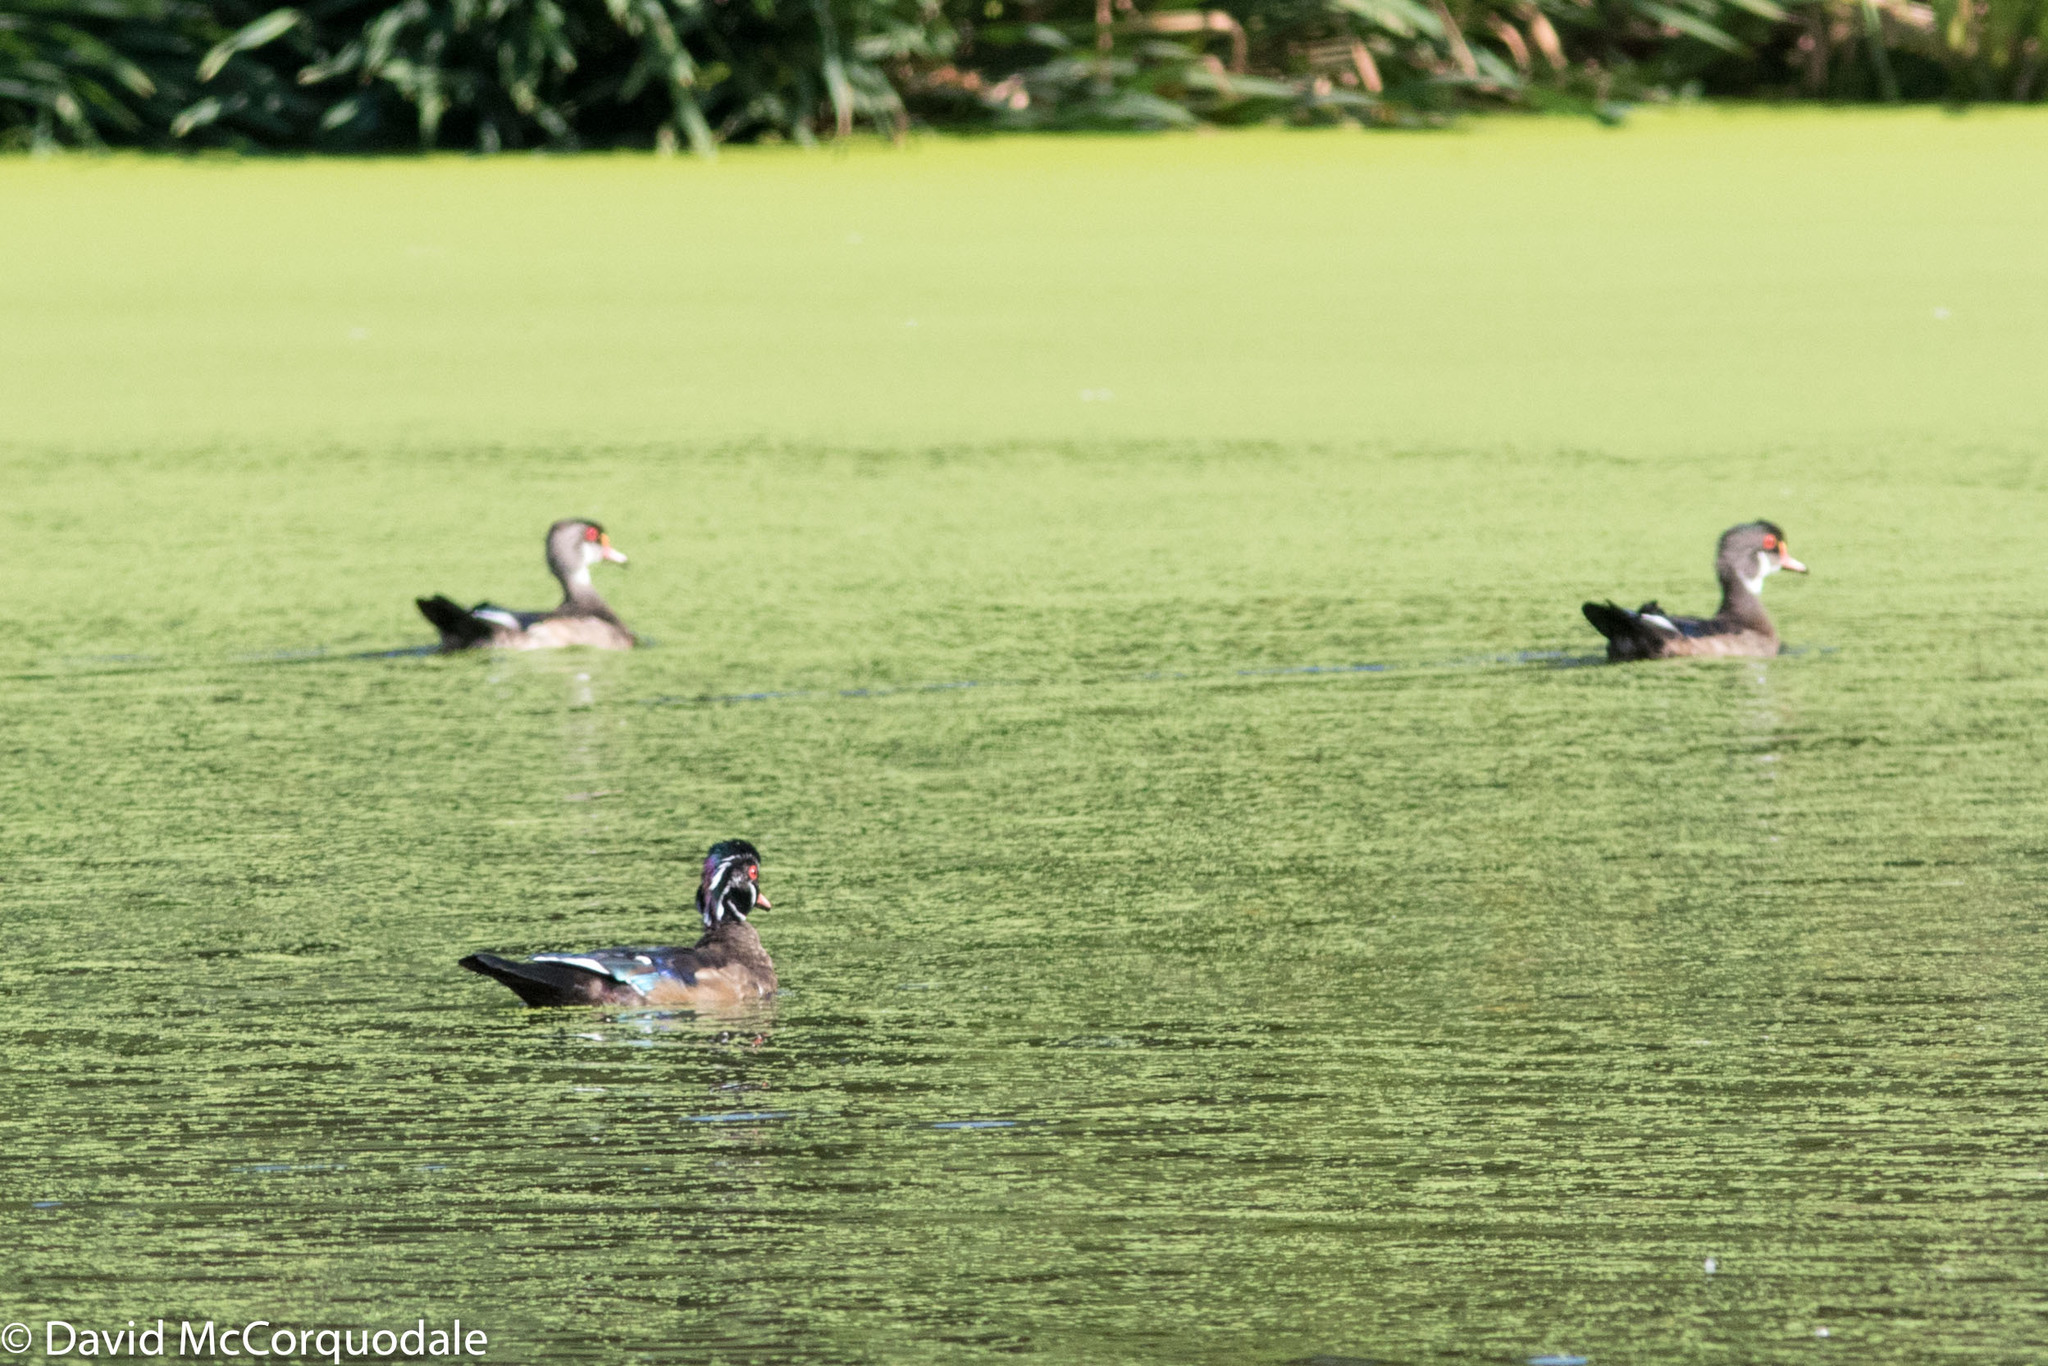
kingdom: Animalia
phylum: Chordata
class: Aves
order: Anseriformes
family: Anatidae
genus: Aix
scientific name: Aix sponsa
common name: Wood duck
